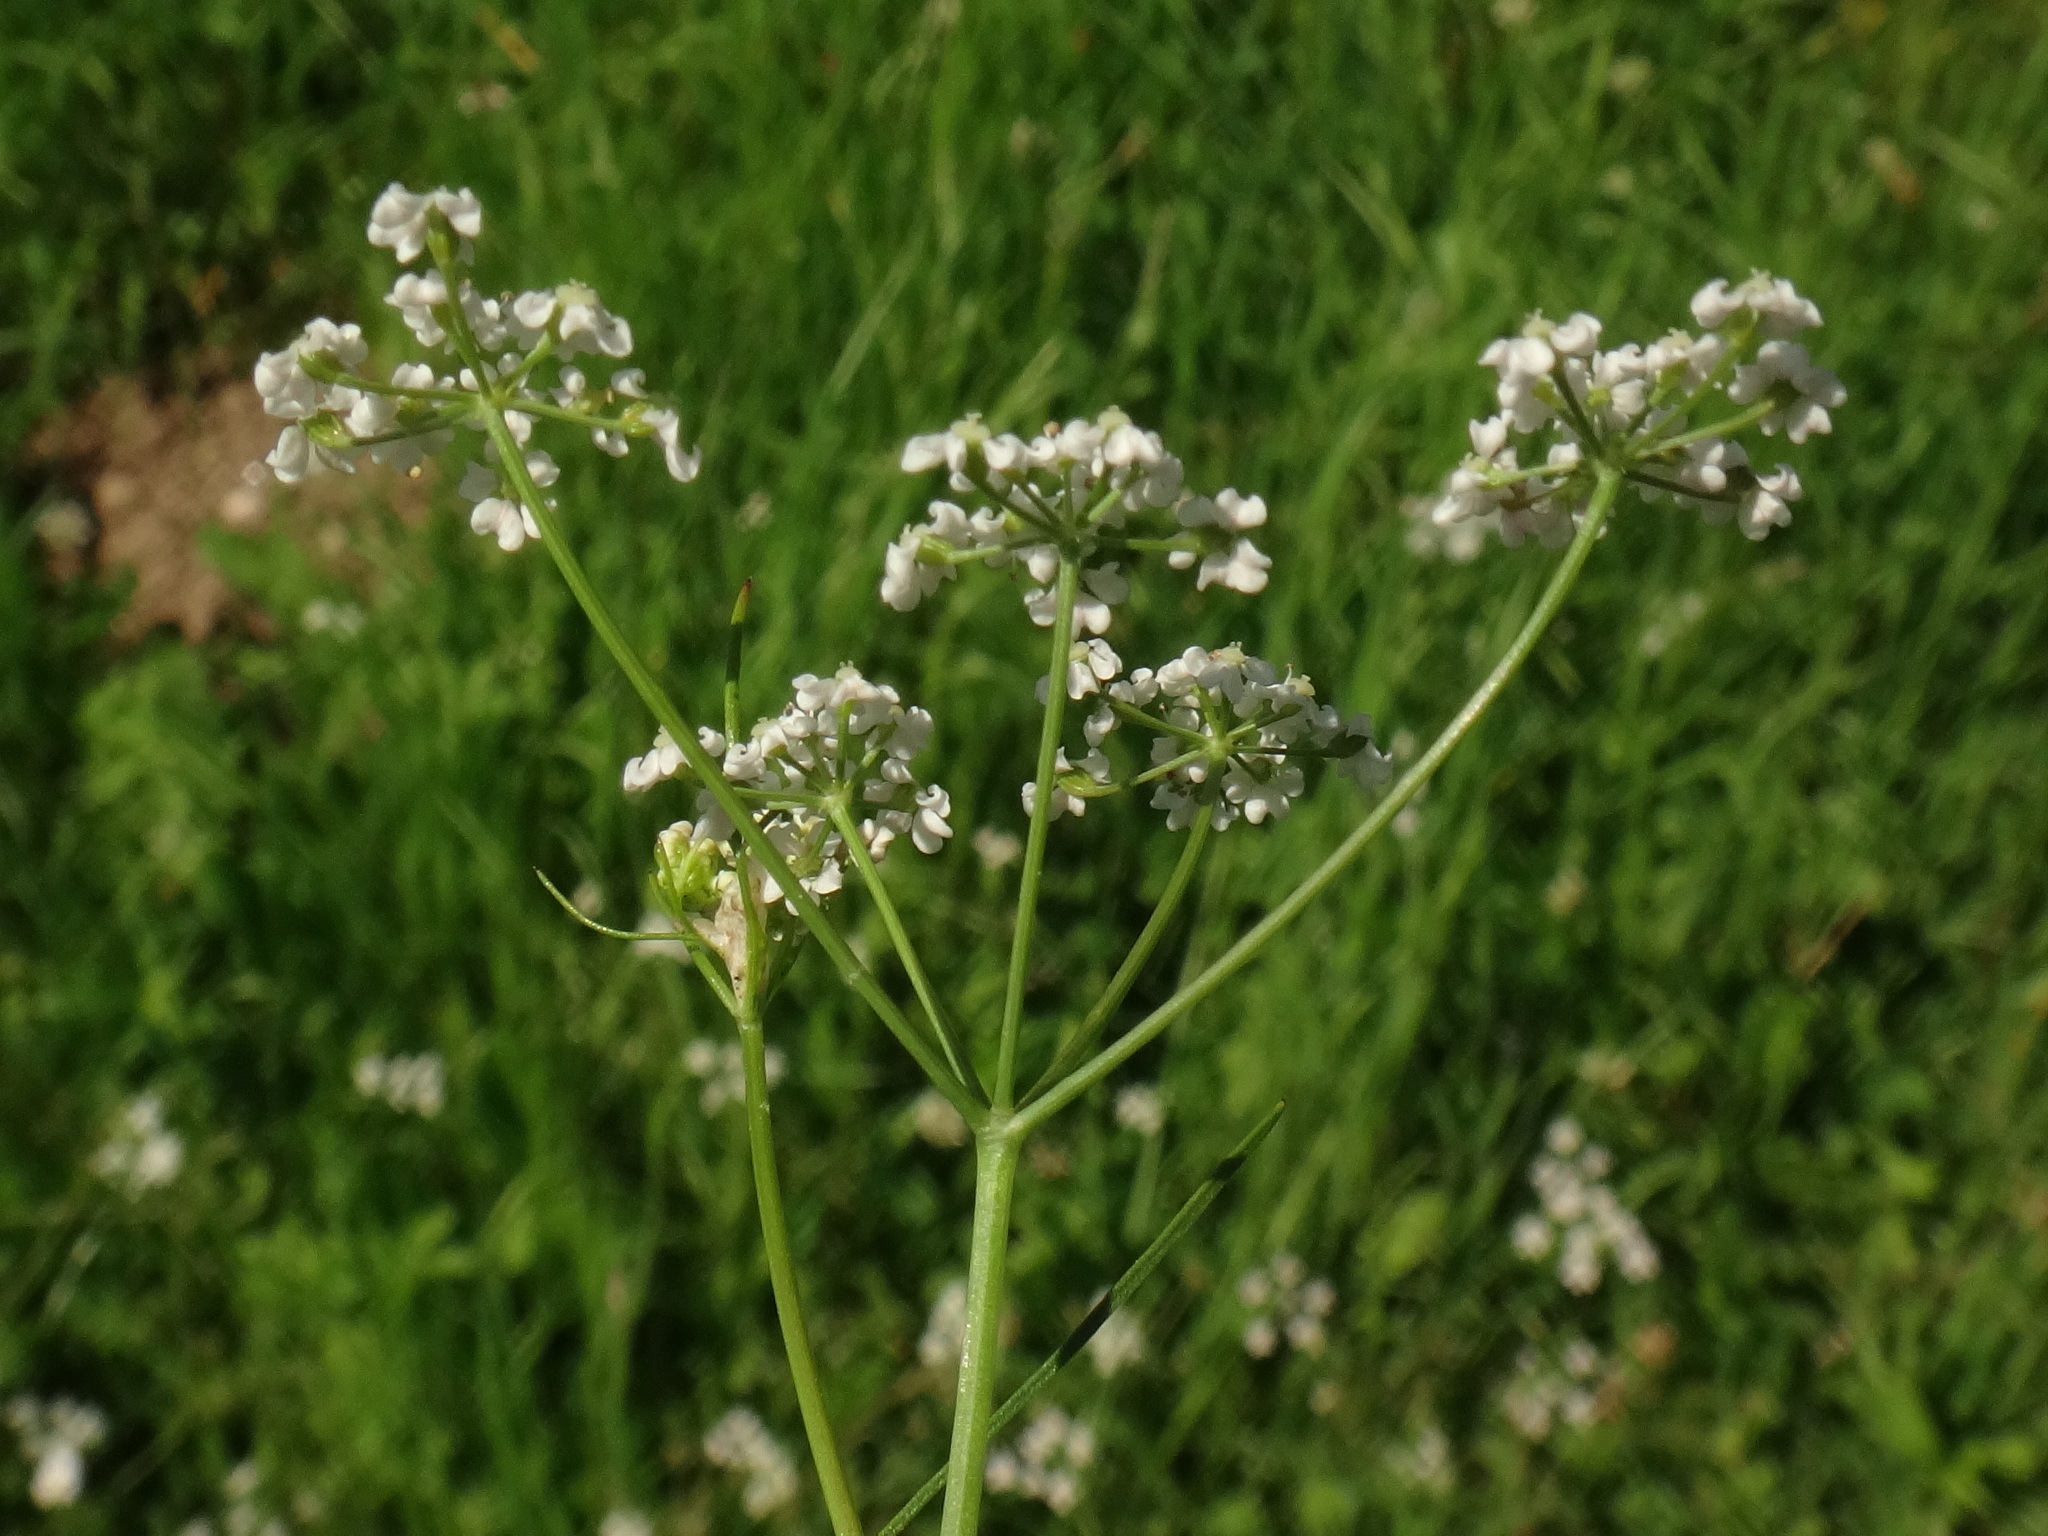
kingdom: Plantae
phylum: Tracheophyta
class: Magnoliopsida
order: Apiales
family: Apiaceae
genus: Carum
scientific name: Carum carvi
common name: Caraway
